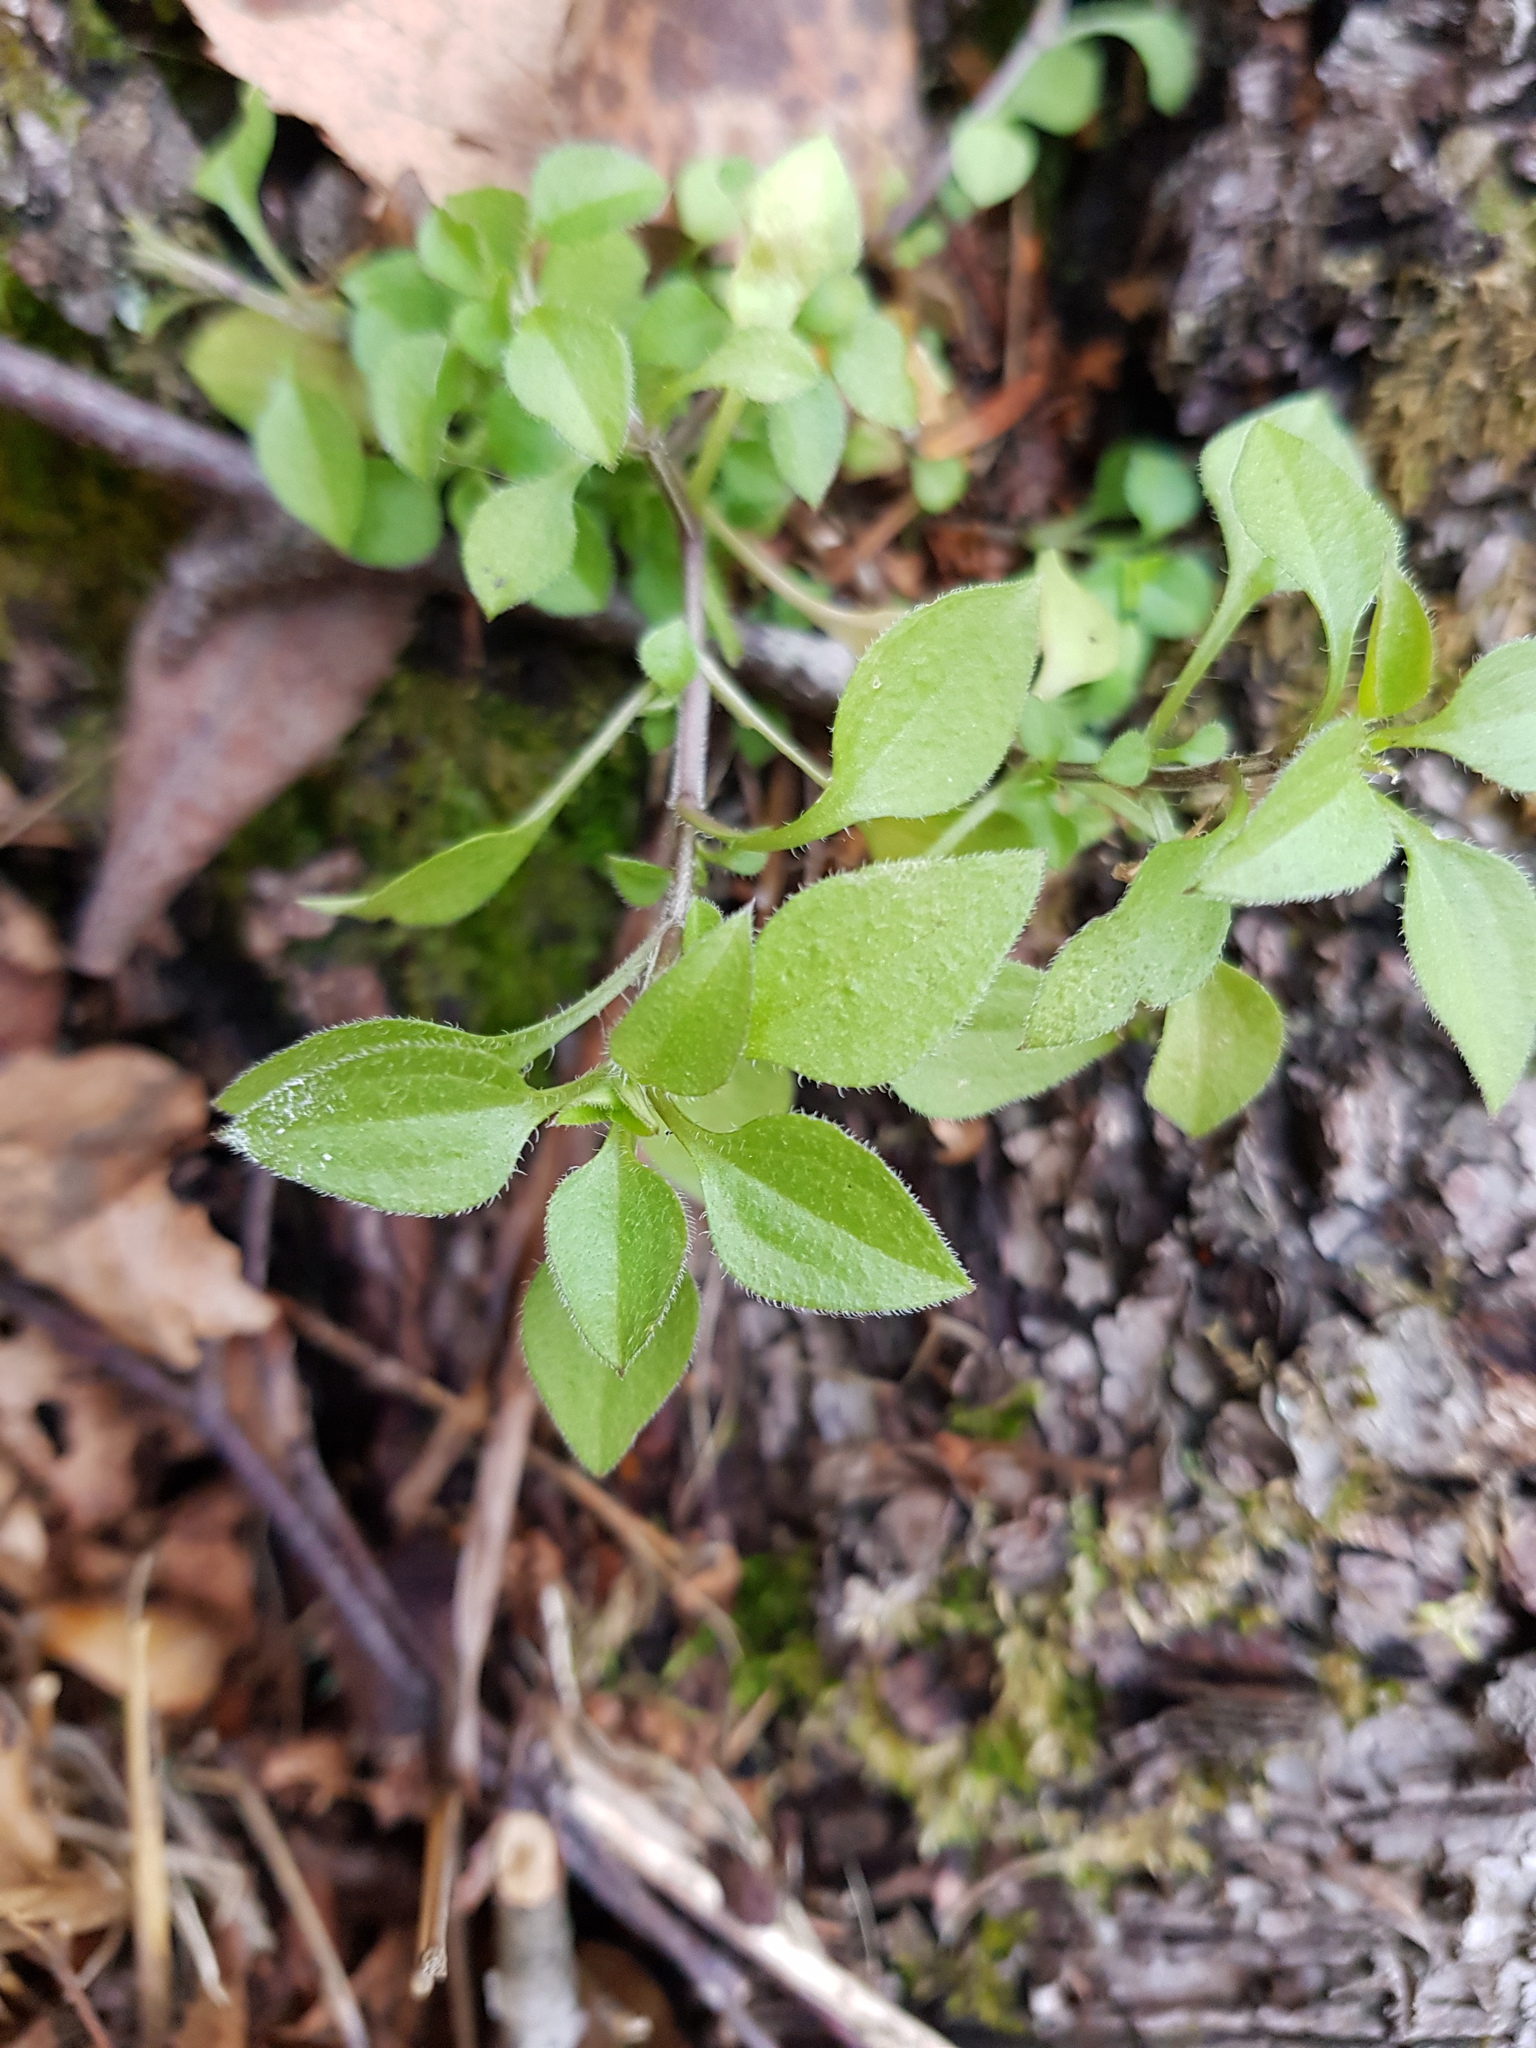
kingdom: Plantae
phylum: Tracheophyta
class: Magnoliopsida
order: Caryophyllales
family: Caryophyllaceae
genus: Moehringia
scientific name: Moehringia trinervia
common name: Three-nerved sandwort
